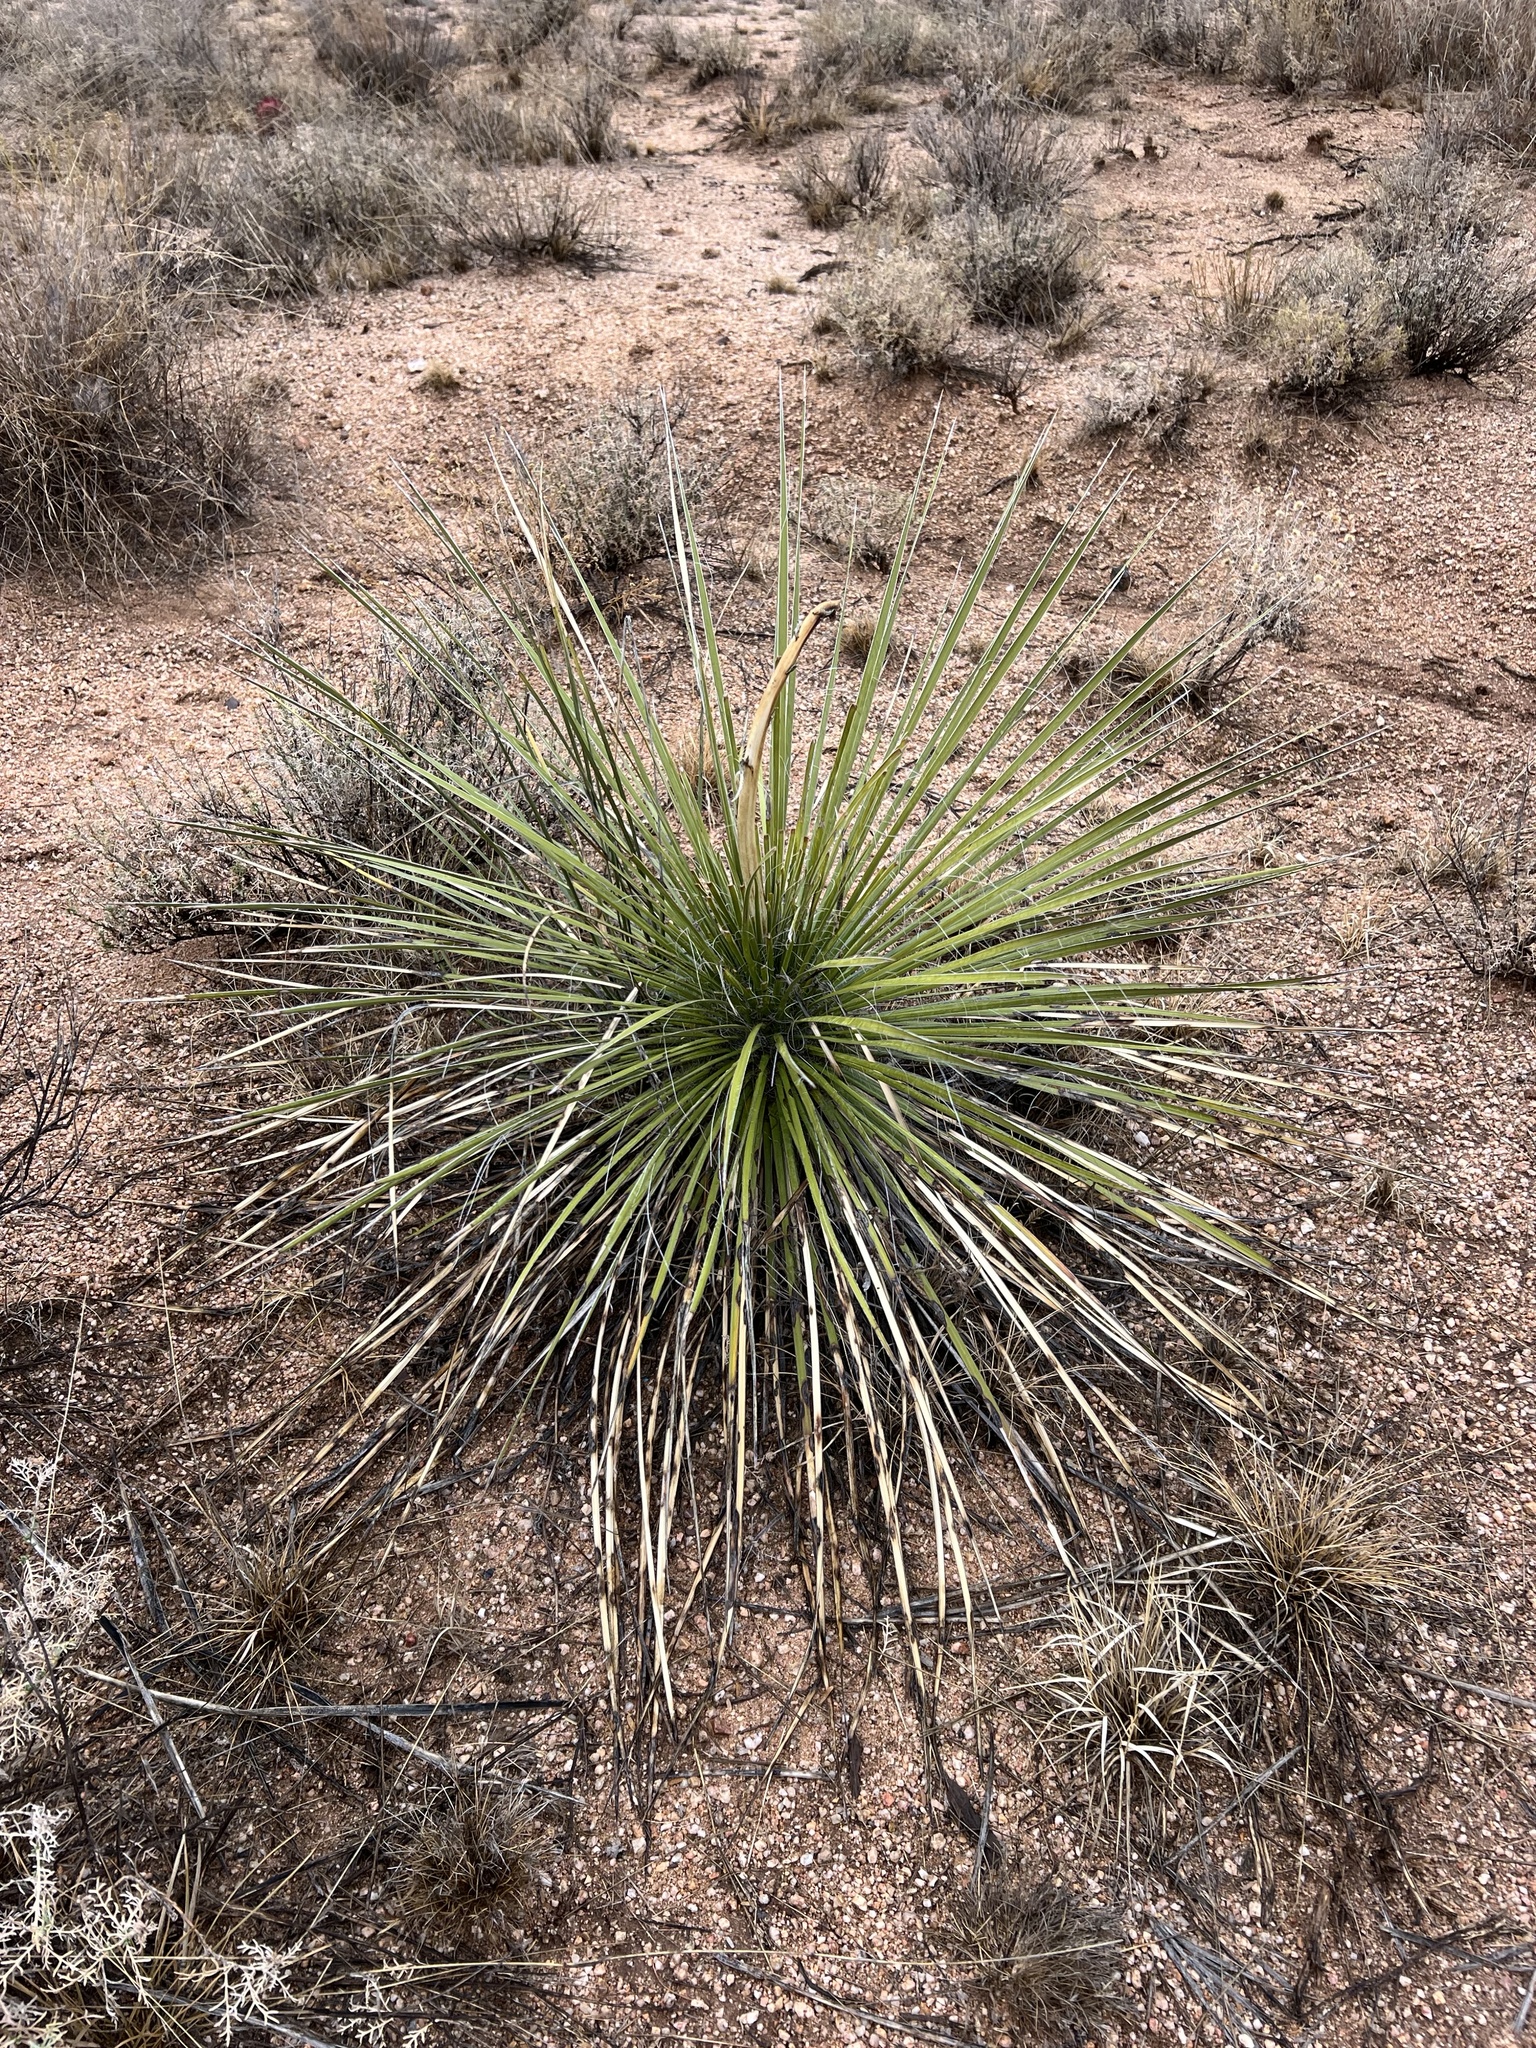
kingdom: Plantae
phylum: Tracheophyta
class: Liliopsida
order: Asparagales
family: Asparagaceae
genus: Yucca
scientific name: Yucca elata
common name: Palmella
